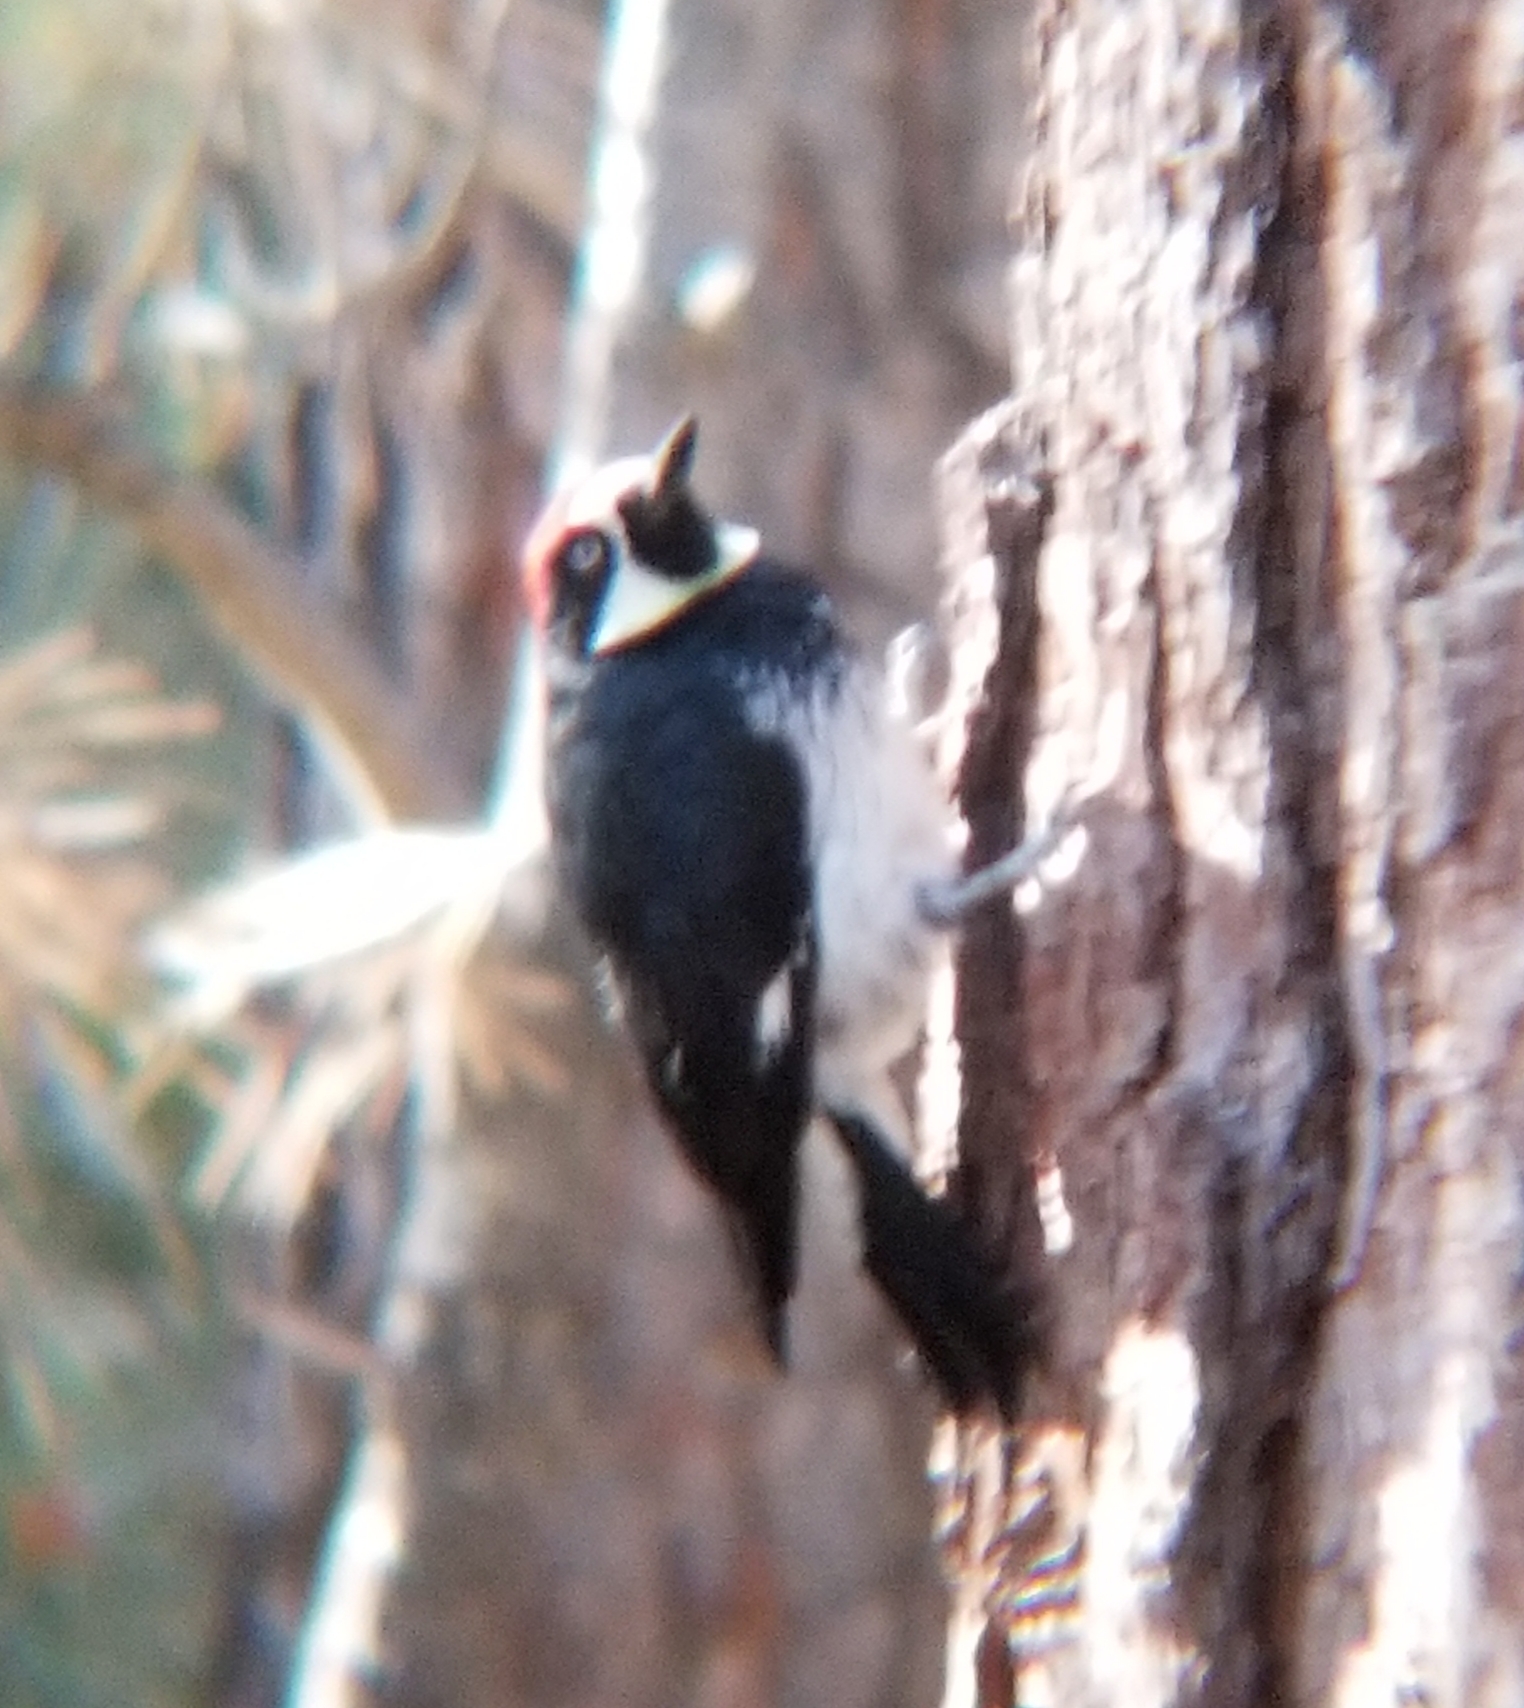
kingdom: Animalia
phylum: Chordata
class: Aves
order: Piciformes
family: Picidae
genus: Melanerpes
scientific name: Melanerpes formicivorus
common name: Acorn woodpecker
